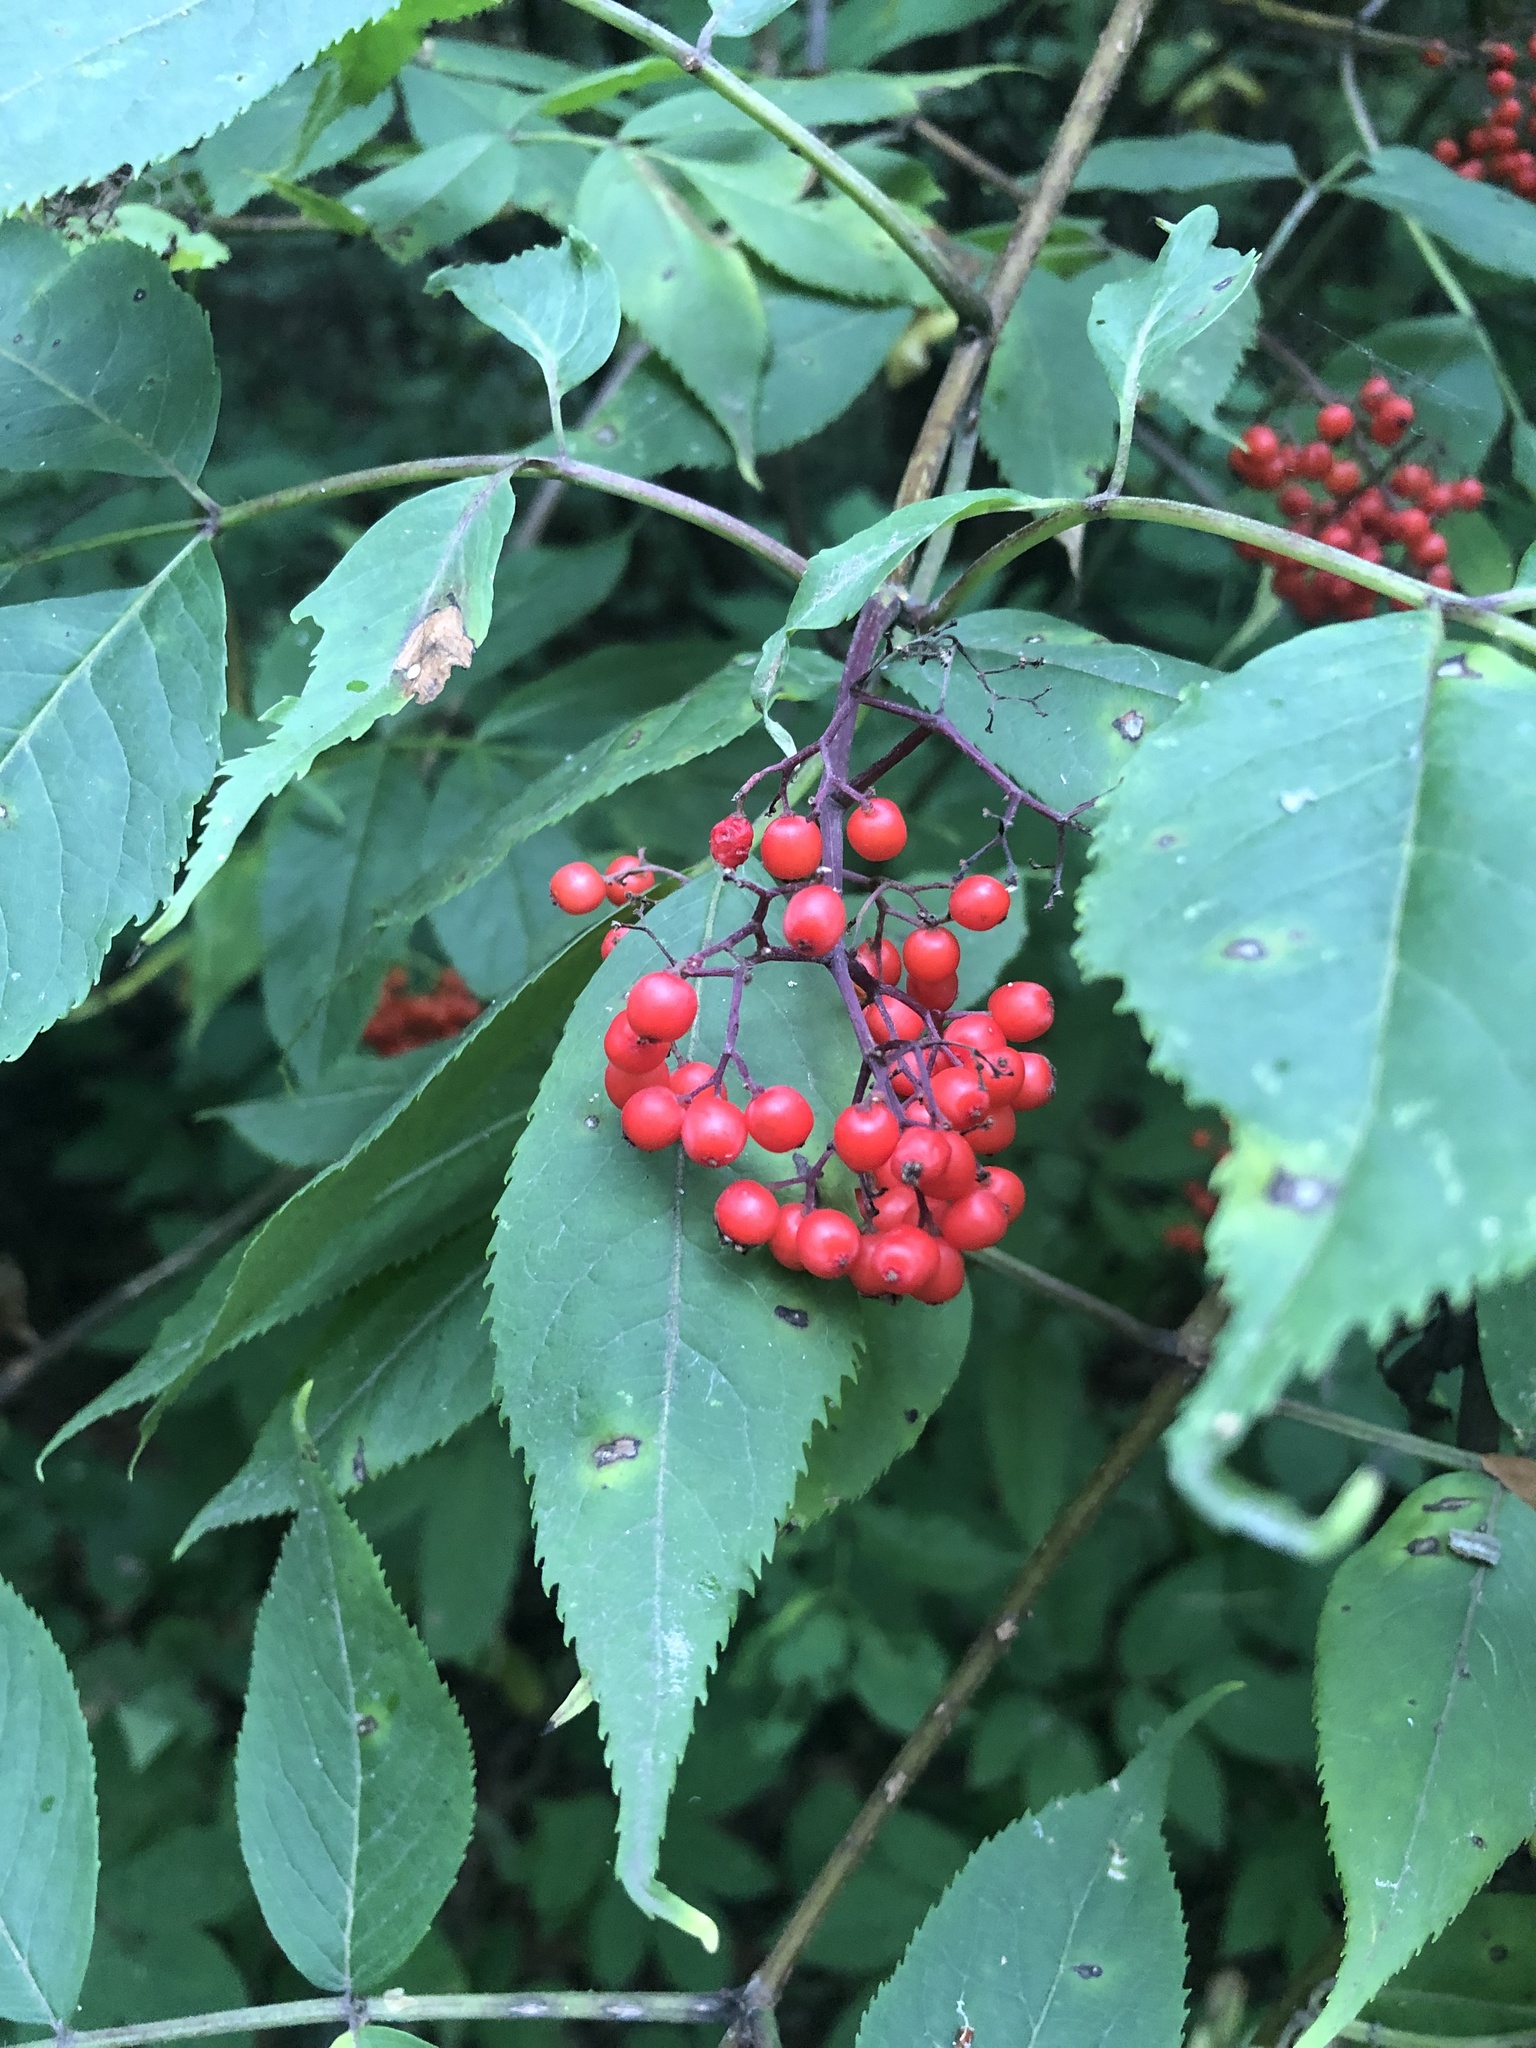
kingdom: Plantae
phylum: Tracheophyta
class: Magnoliopsida
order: Dipsacales
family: Viburnaceae
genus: Sambucus
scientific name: Sambucus racemosa
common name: Red-berried elder
